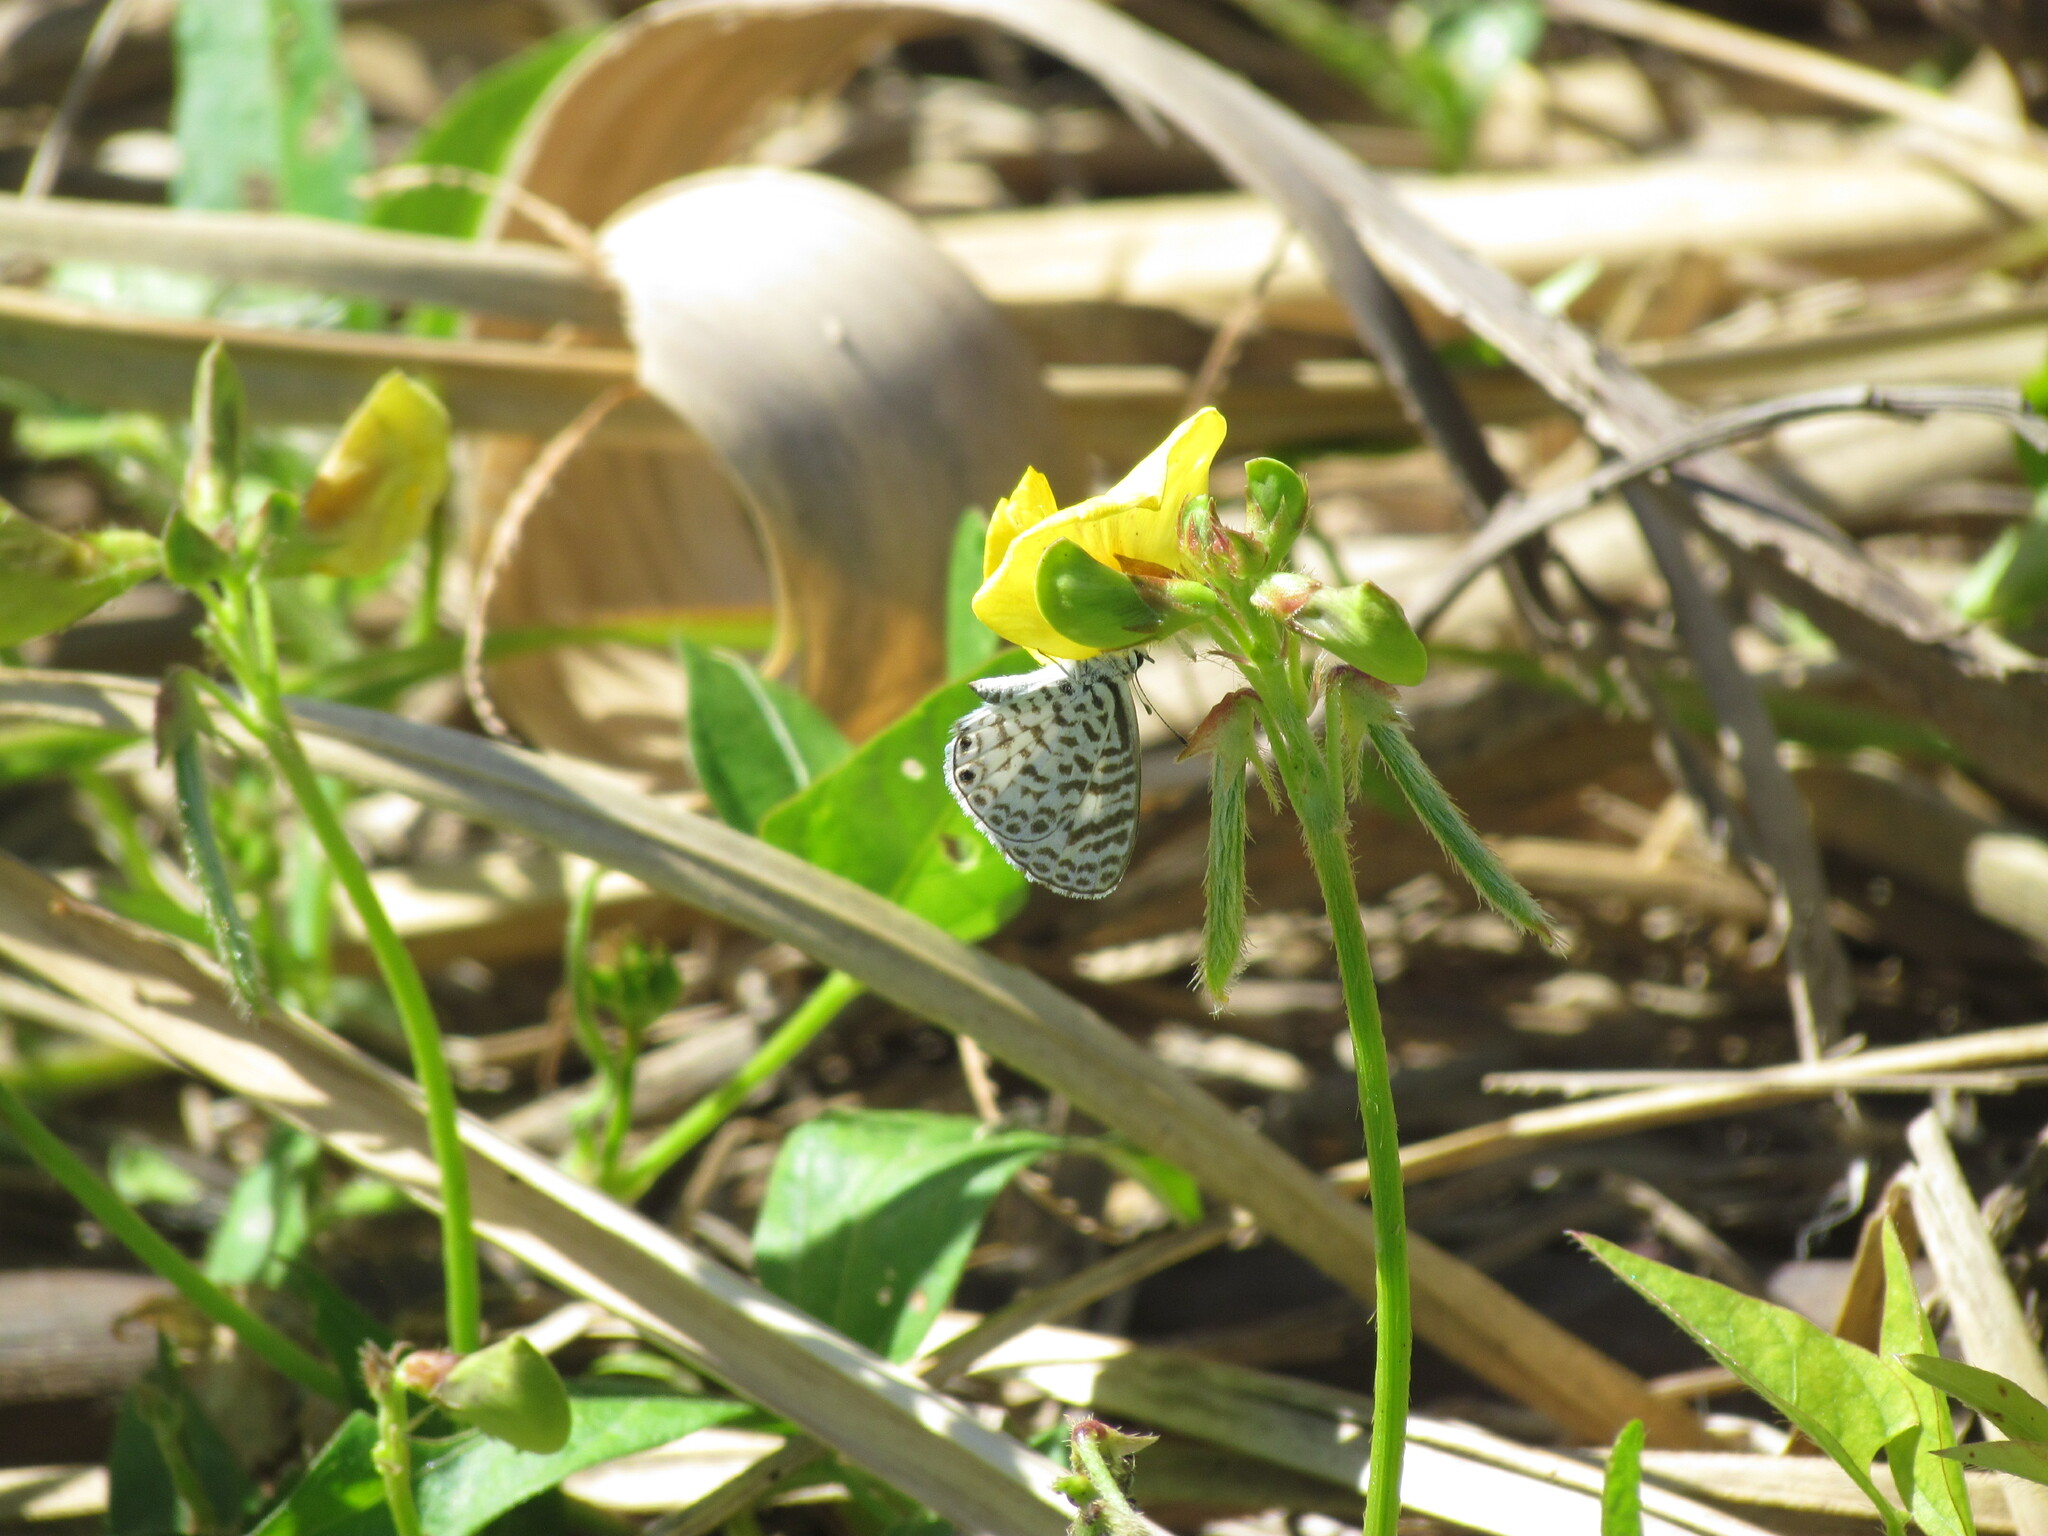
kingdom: Animalia
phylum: Arthropoda
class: Insecta
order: Lepidoptera
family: Lycaenidae
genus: Leptotes
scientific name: Leptotes cassius
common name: Cassius blue
